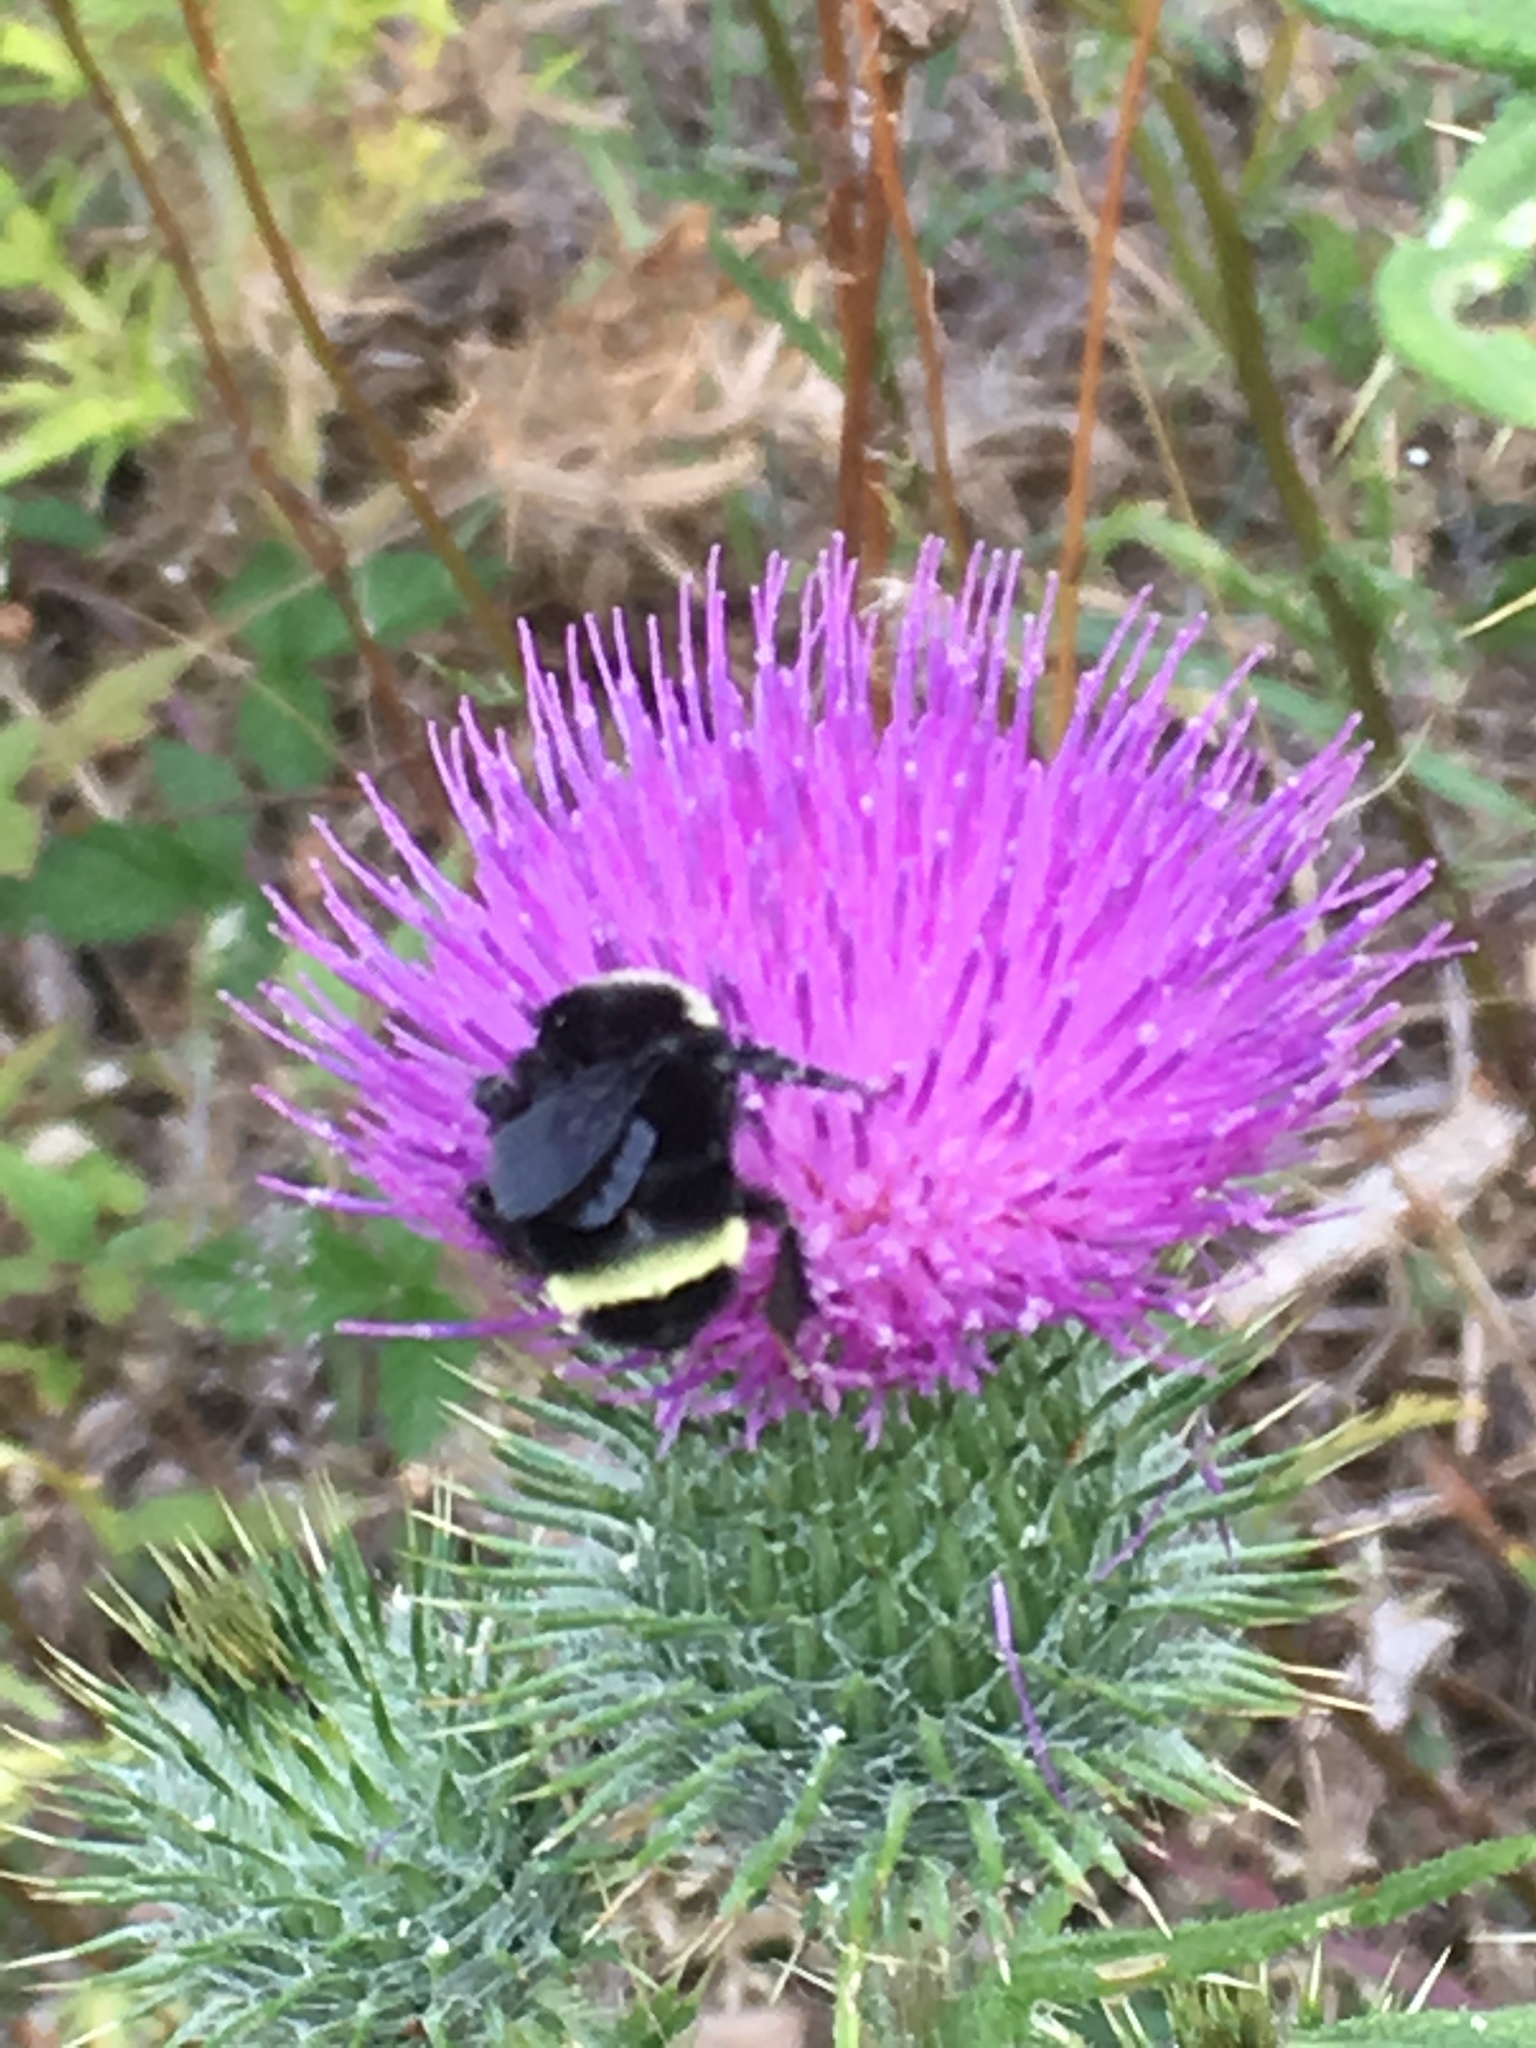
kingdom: Animalia
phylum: Arthropoda
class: Insecta
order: Hymenoptera
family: Apidae
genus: Bombus
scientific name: Bombus vosnesenskii
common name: Vosnesensky bumble bee
